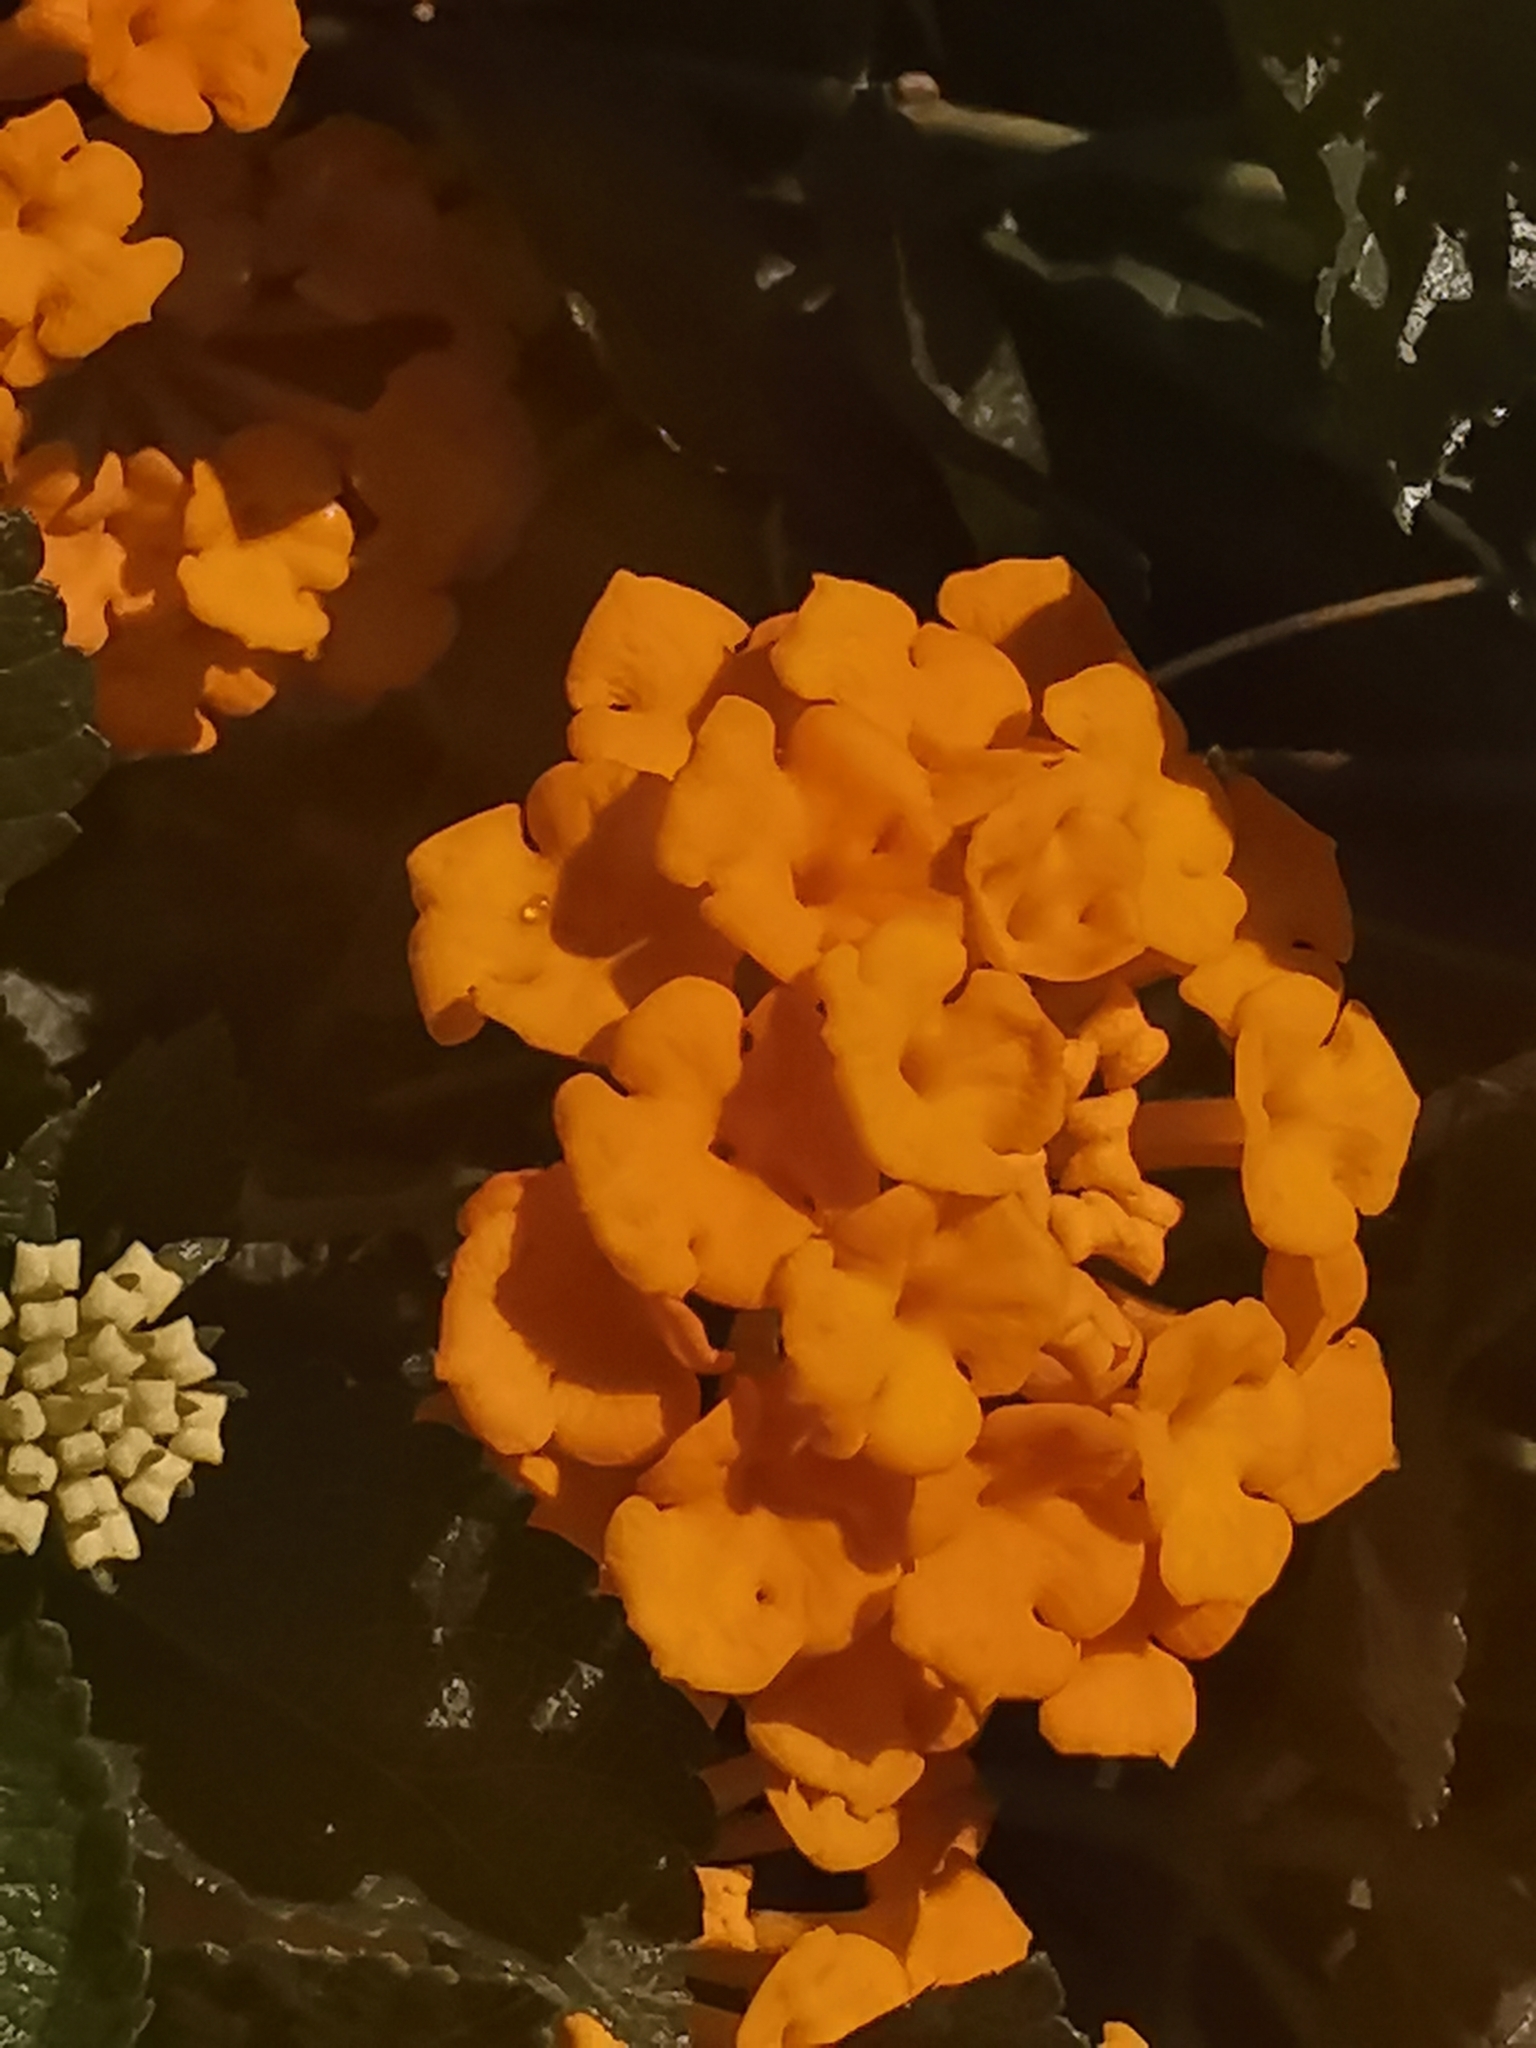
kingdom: Plantae
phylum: Tracheophyta
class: Magnoliopsida
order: Lamiales
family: Verbenaceae
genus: Lantana
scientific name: Lantana camara
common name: Lantana
